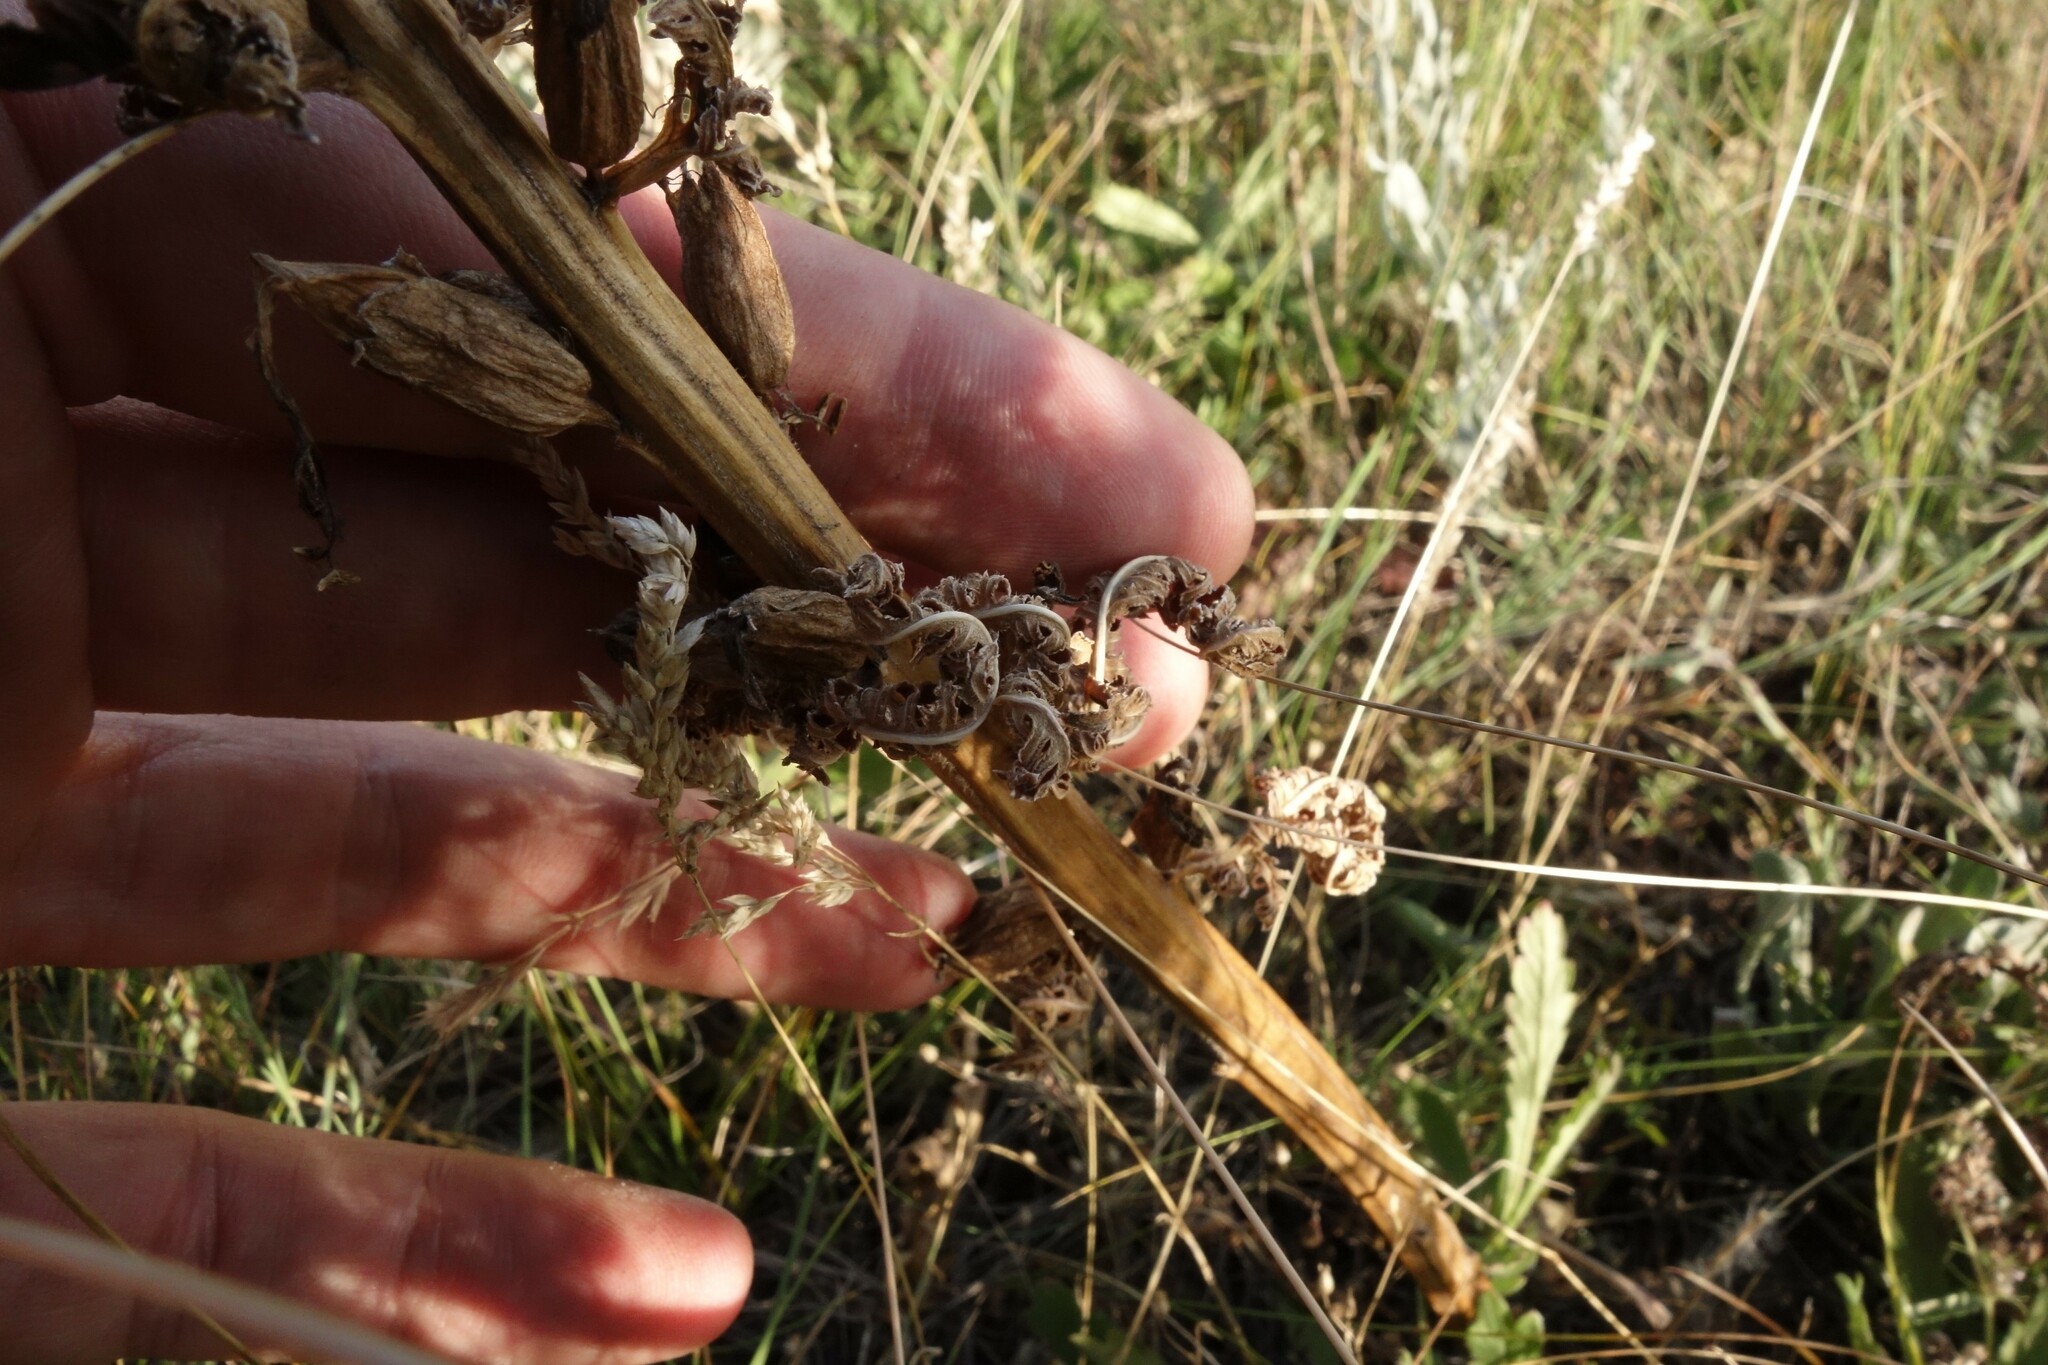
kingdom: Plantae
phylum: Tracheophyta
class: Magnoliopsida
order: Lamiales
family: Orobanchaceae
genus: Pedicularis
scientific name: Pedicularis kaufmannii
